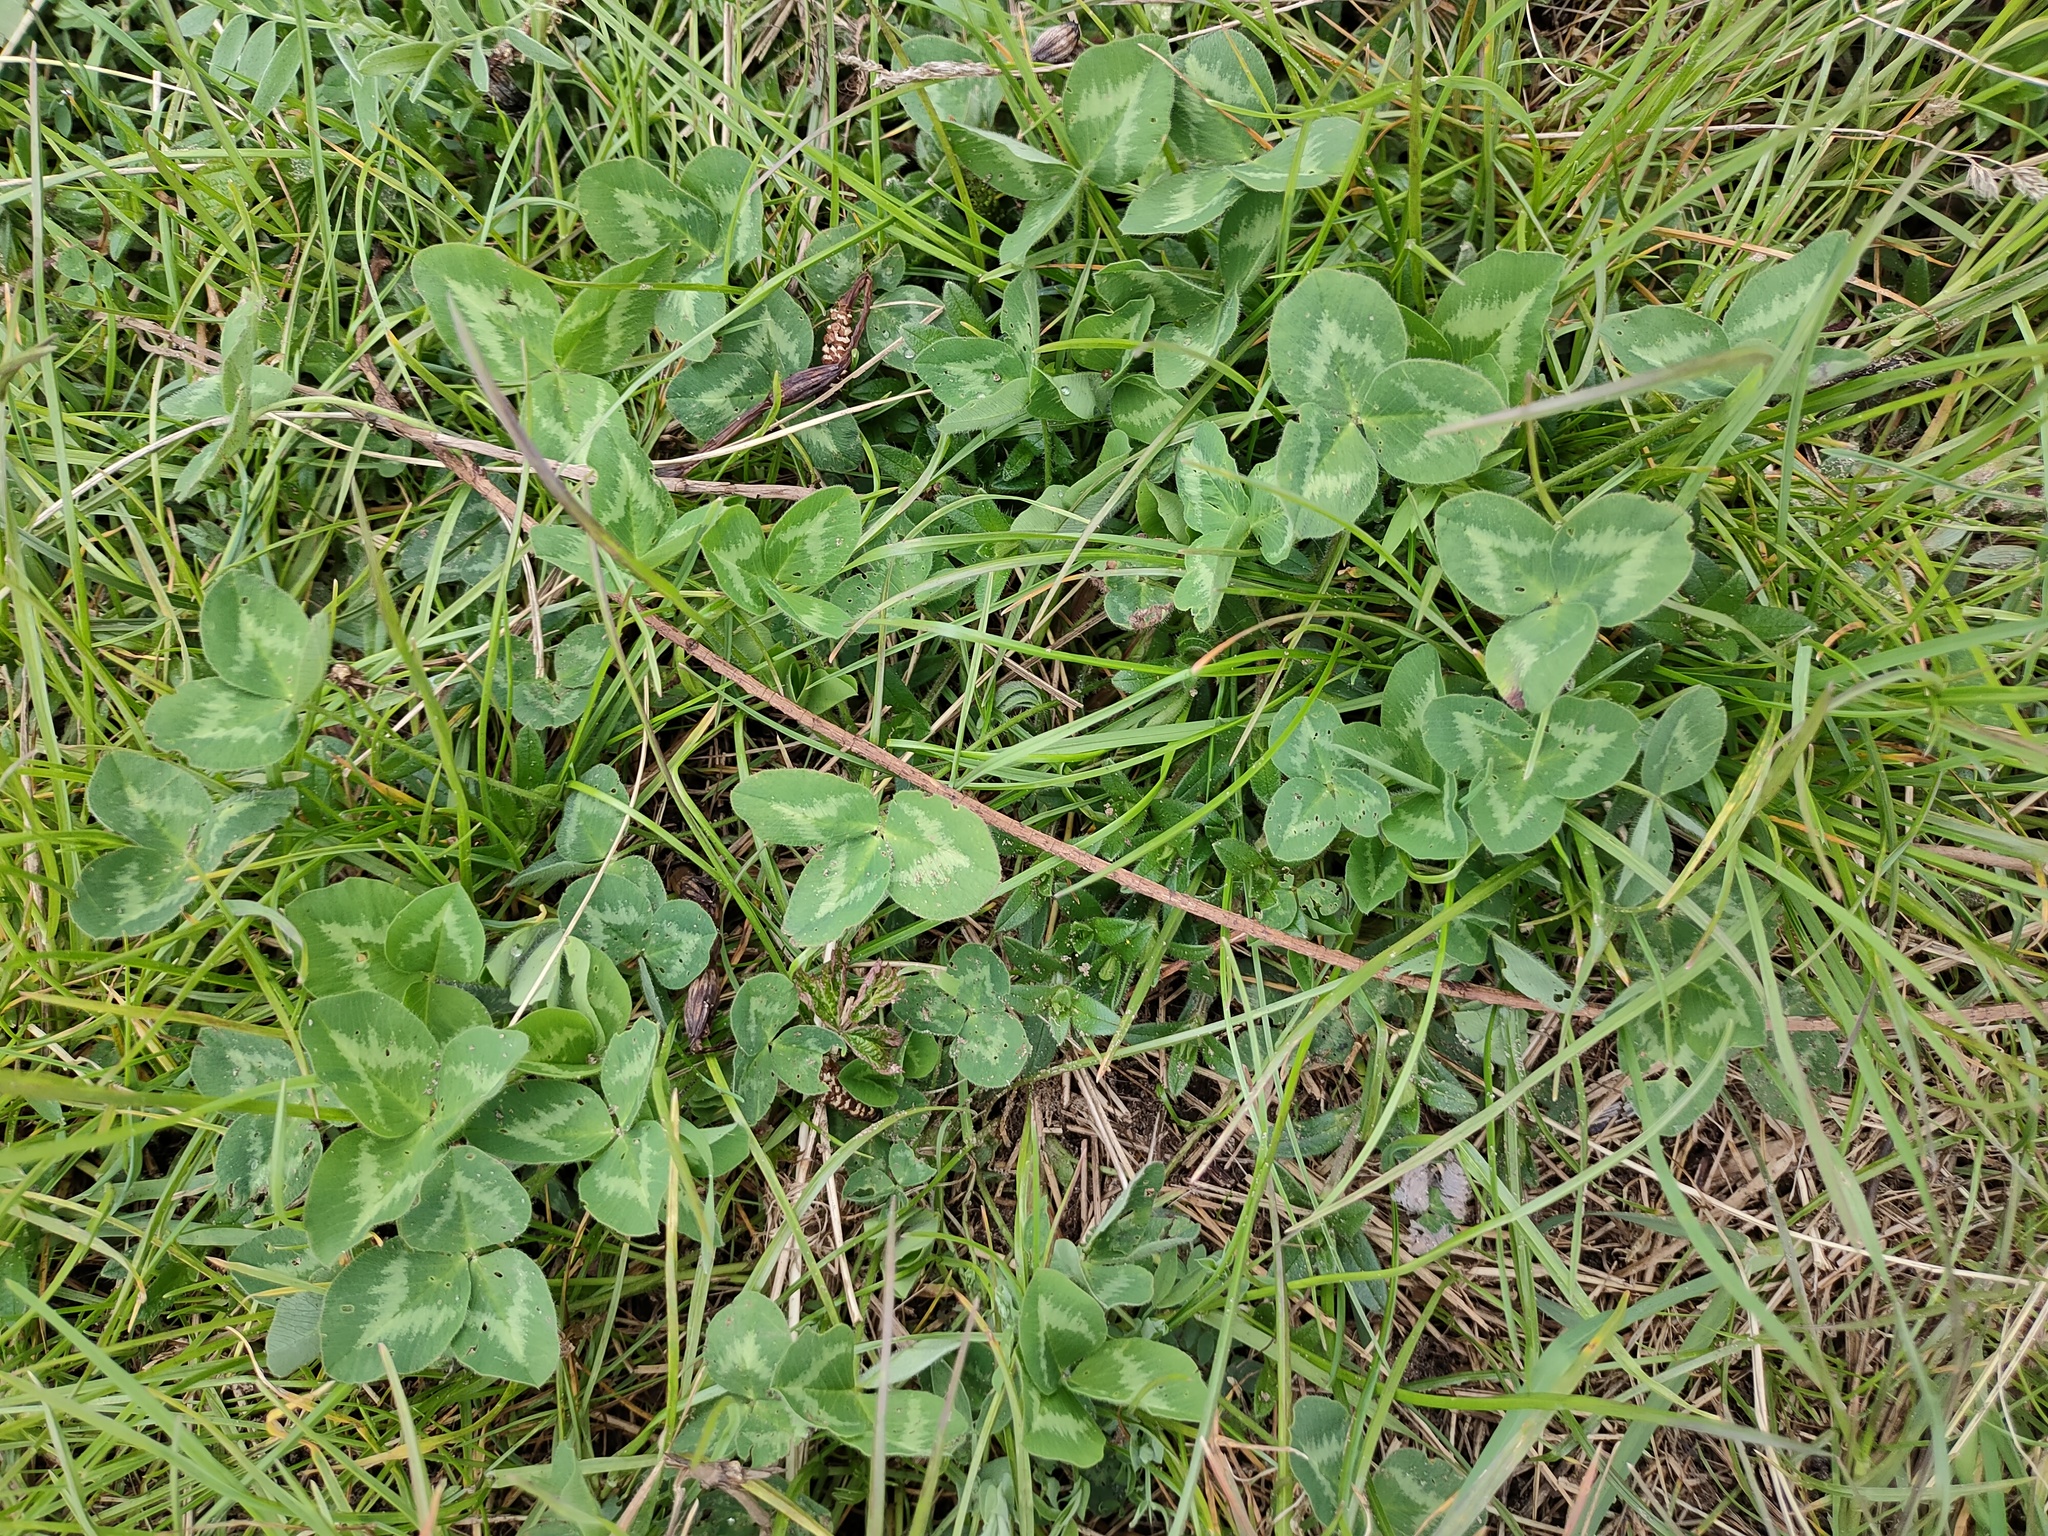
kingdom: Plantae
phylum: Tracheophyta
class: Magnoliopsida
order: Fabales
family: Fabaceae
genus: Trifolium
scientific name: Trifolium pratense
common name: Red clover
